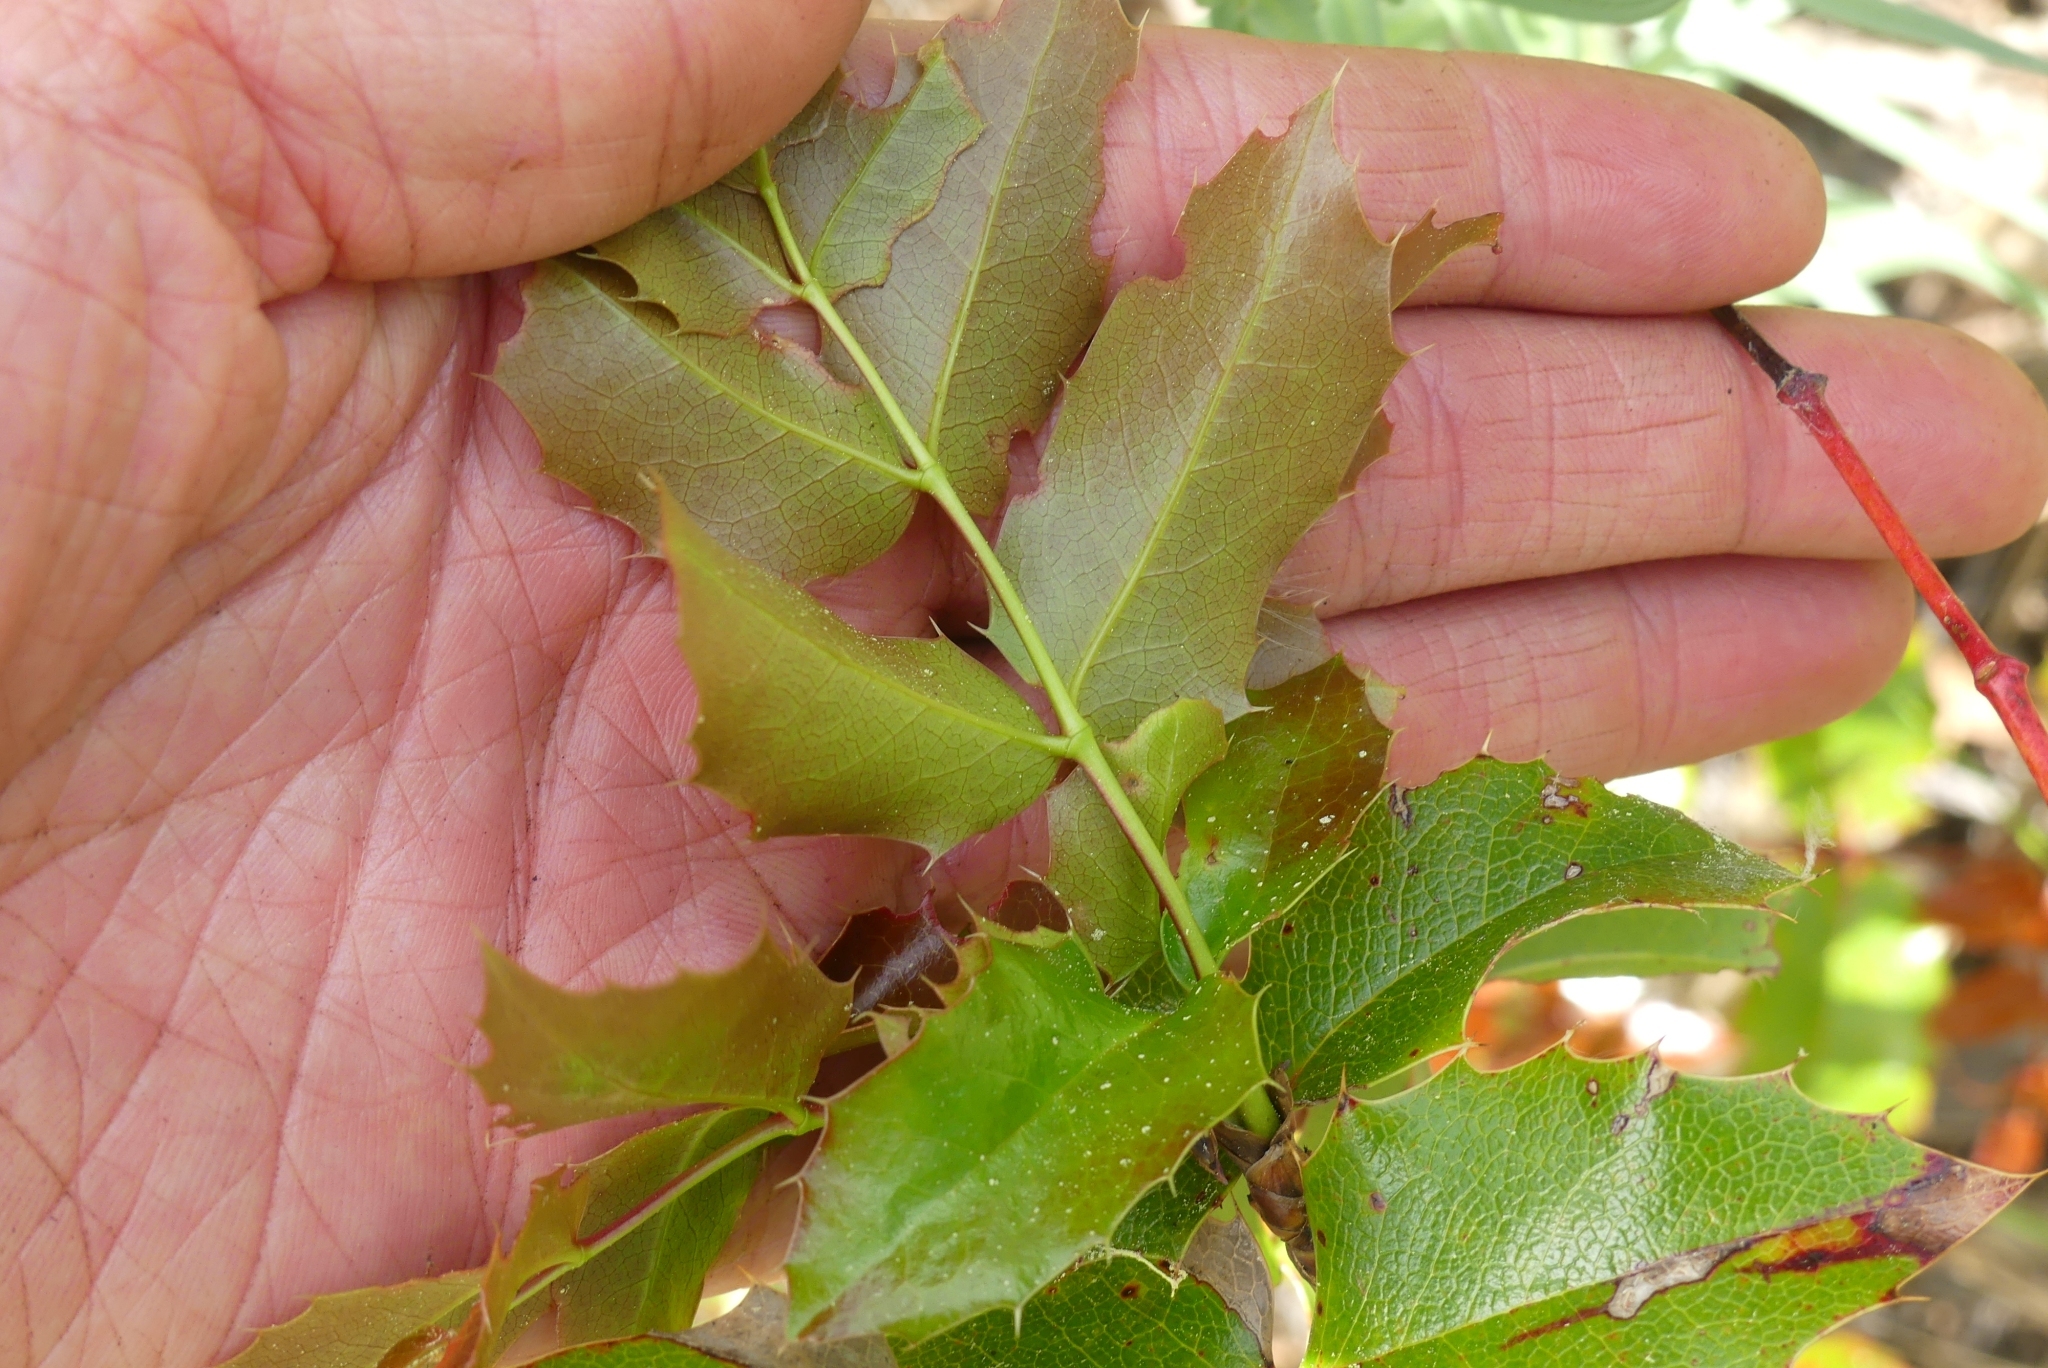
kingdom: Plantae
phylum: Tracheophyta
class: Magnoliopsida
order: Ranunculales
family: Berberidaceae
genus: Mahonia
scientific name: Mahonia aquifolium
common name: Oregon-grape
